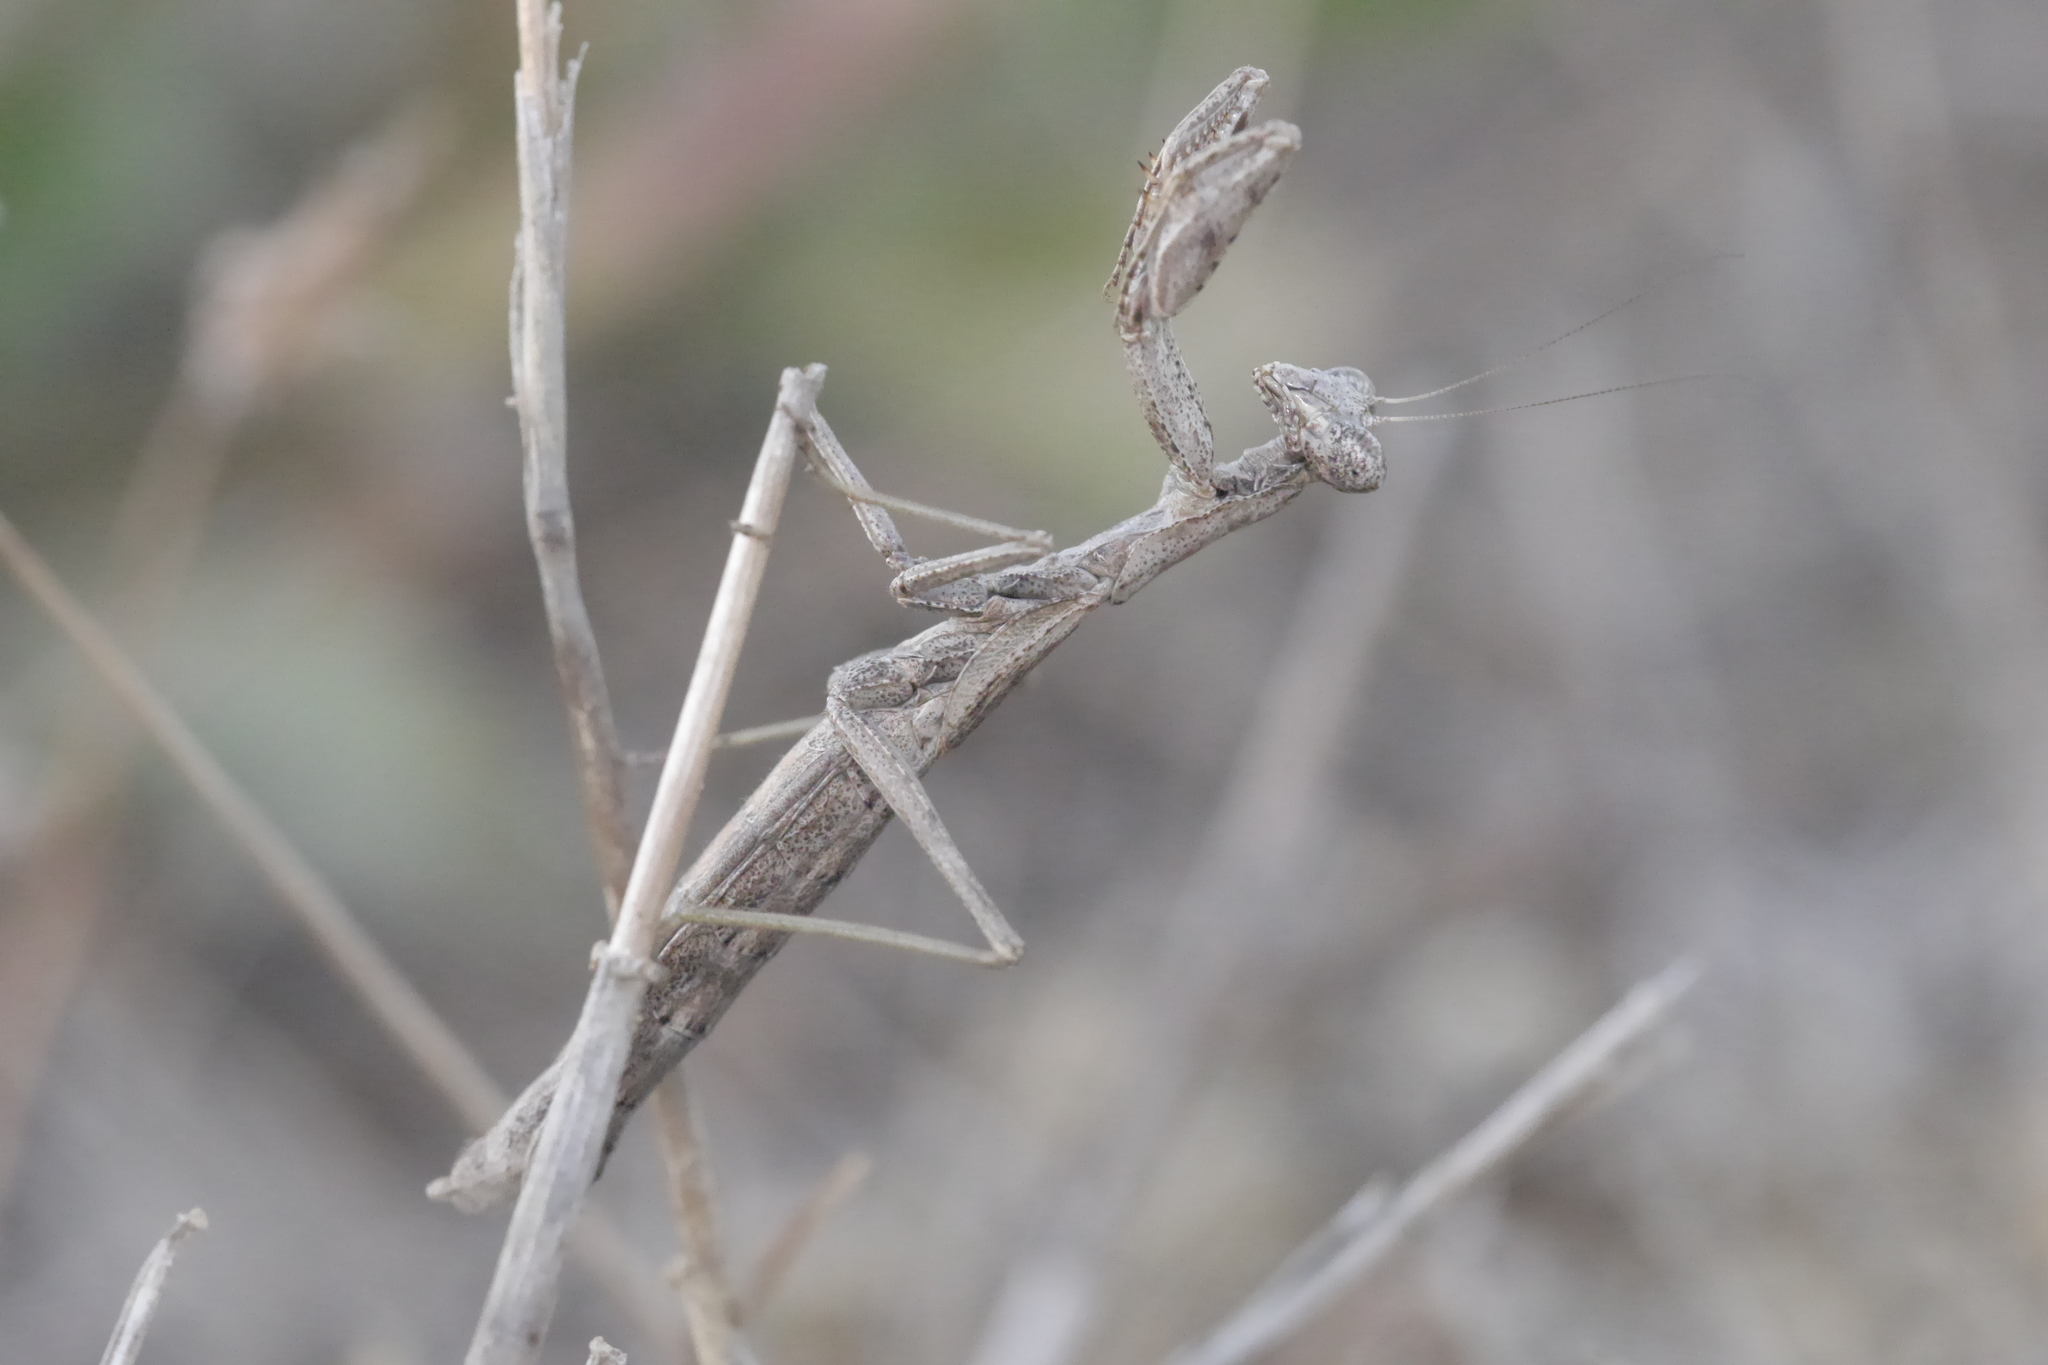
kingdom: Animalia
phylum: Arthropoda
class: Insecta
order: Mantodea
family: Amelidae
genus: Ameles
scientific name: Ameles decolor
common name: Dwarf mantis
